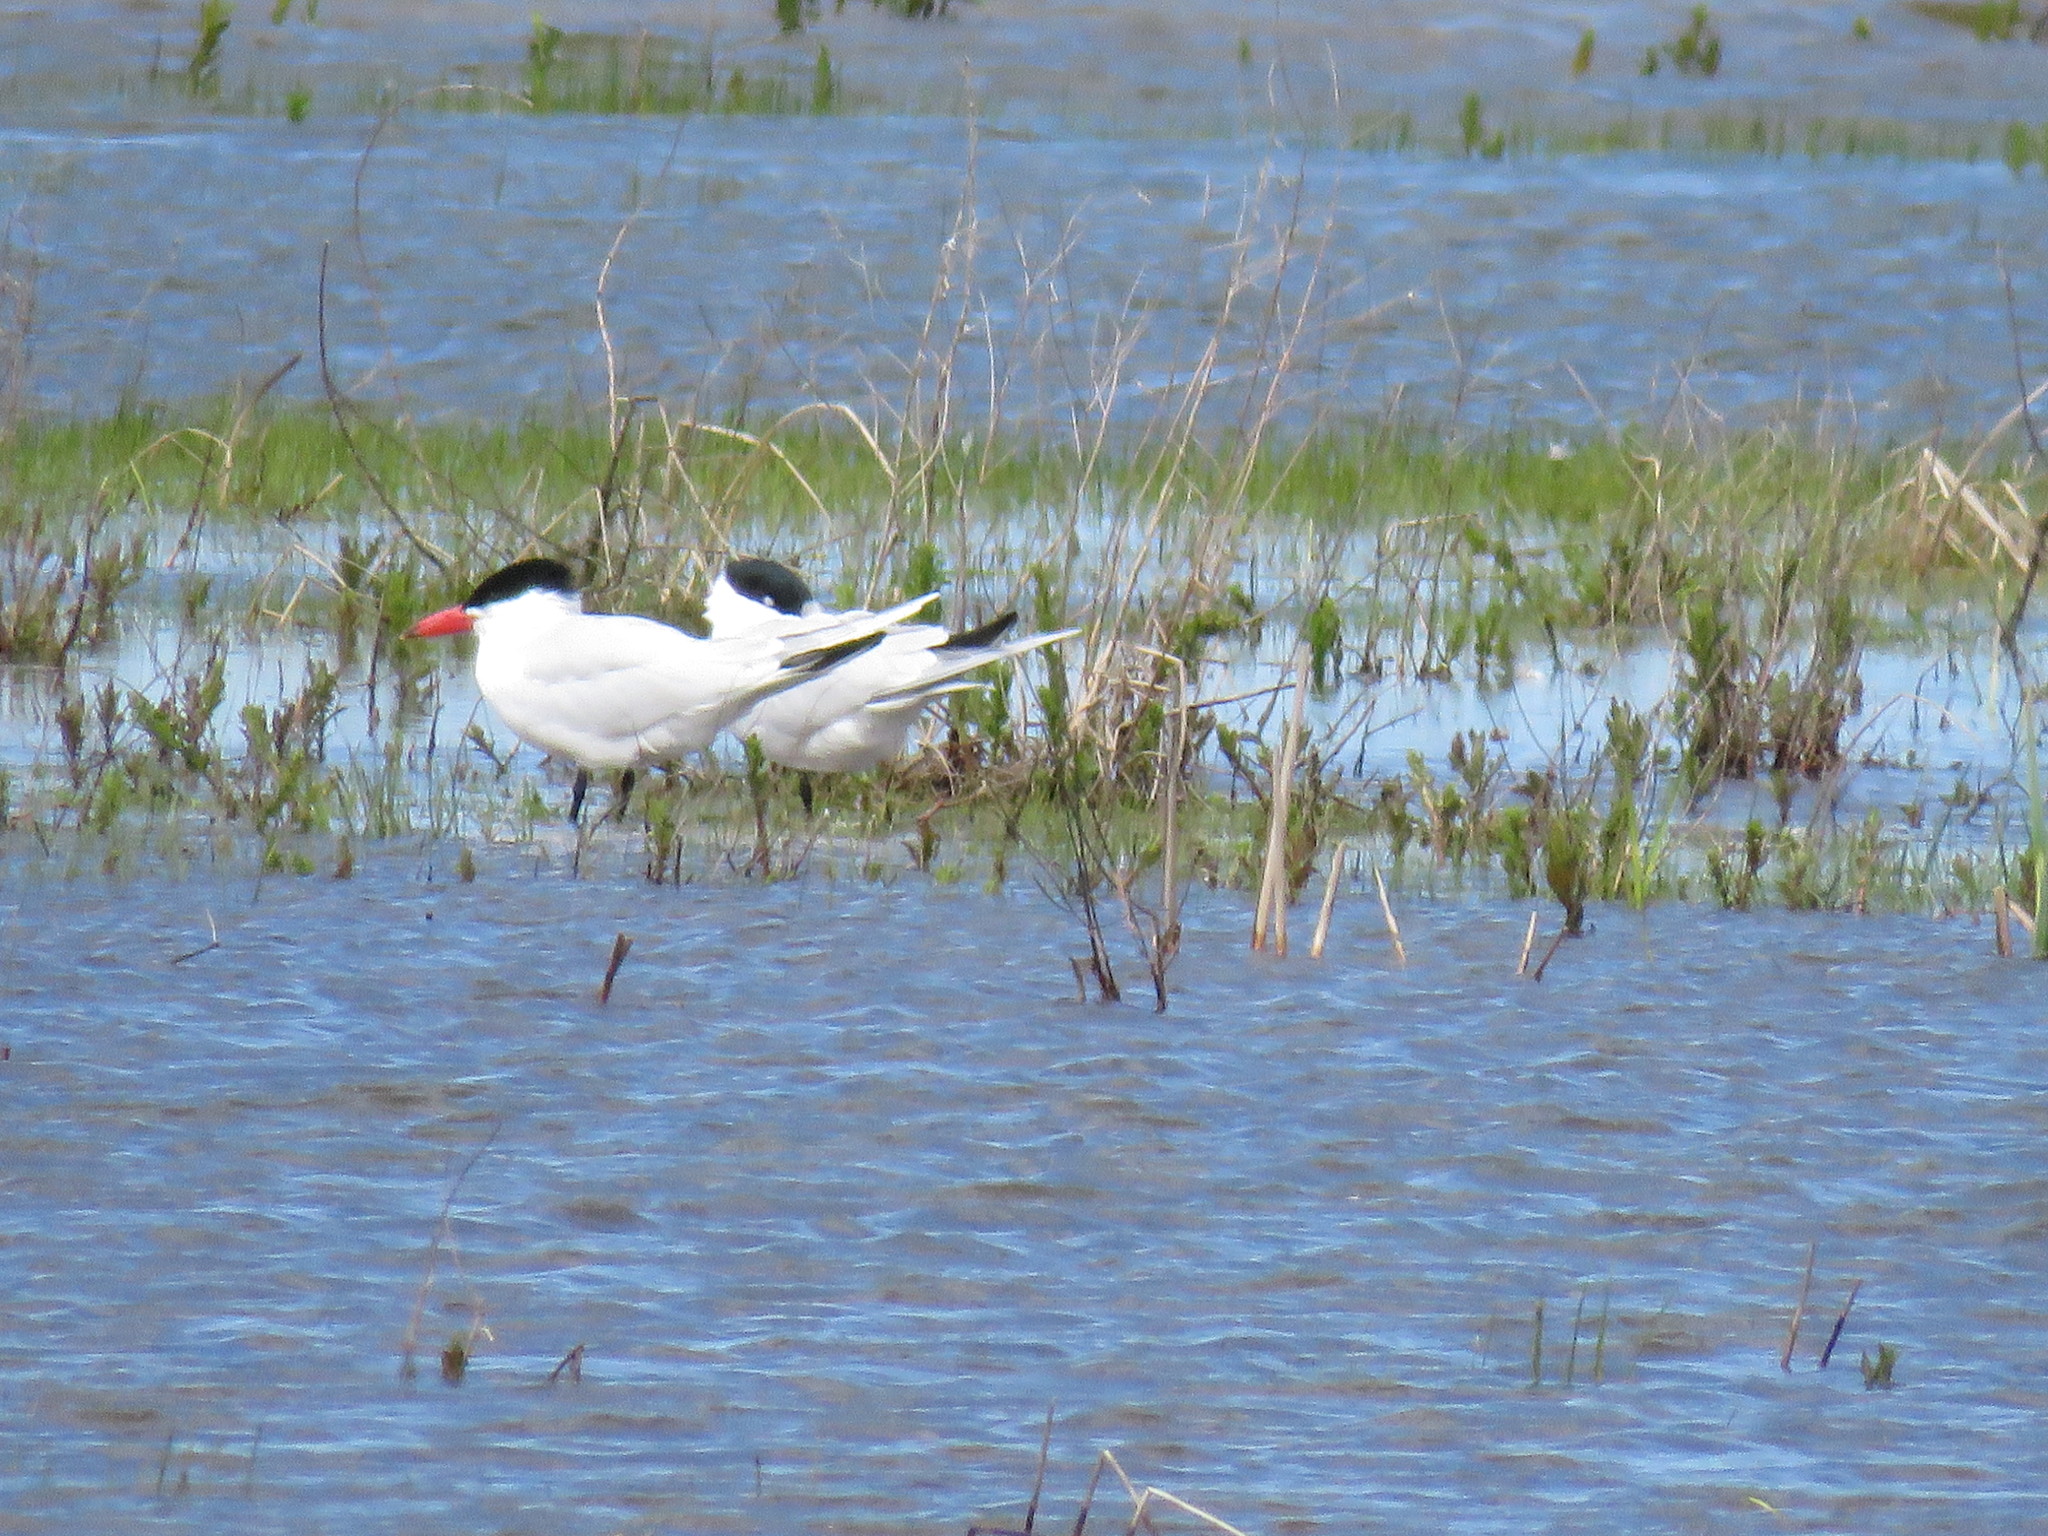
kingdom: Animalia
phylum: Chordata
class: Aves
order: Charadriiformes
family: Laridae
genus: Hydroprogne
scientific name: Hydroprogne caspia
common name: Caspian tern
